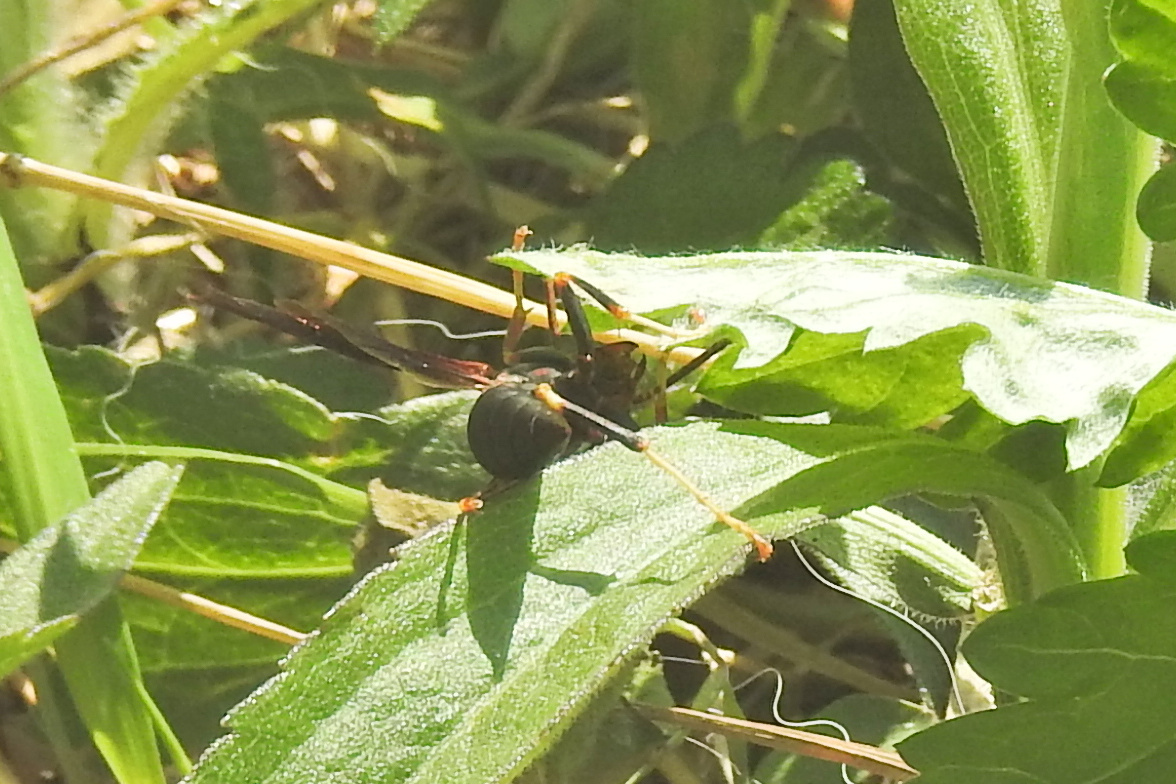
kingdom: Animalia
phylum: Arthropoda
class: Insecta
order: Hymenoptera
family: Eumenidae
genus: Polistes
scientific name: Polistes metricus
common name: Metric paper wasp
